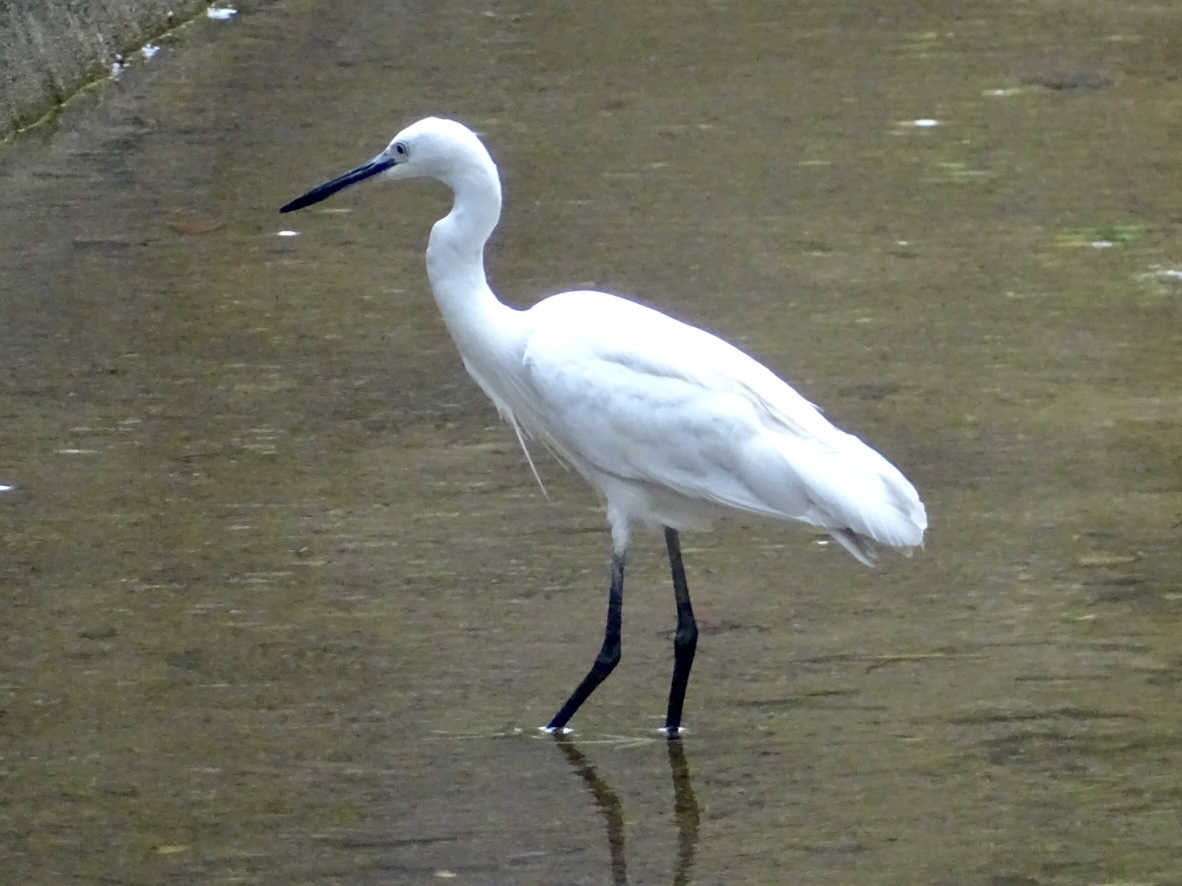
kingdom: Animalia
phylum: Chordata
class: Aves
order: Pelecaniformes
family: Ardeidae
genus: Egretta
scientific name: Egretta garzetta
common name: Little egret
